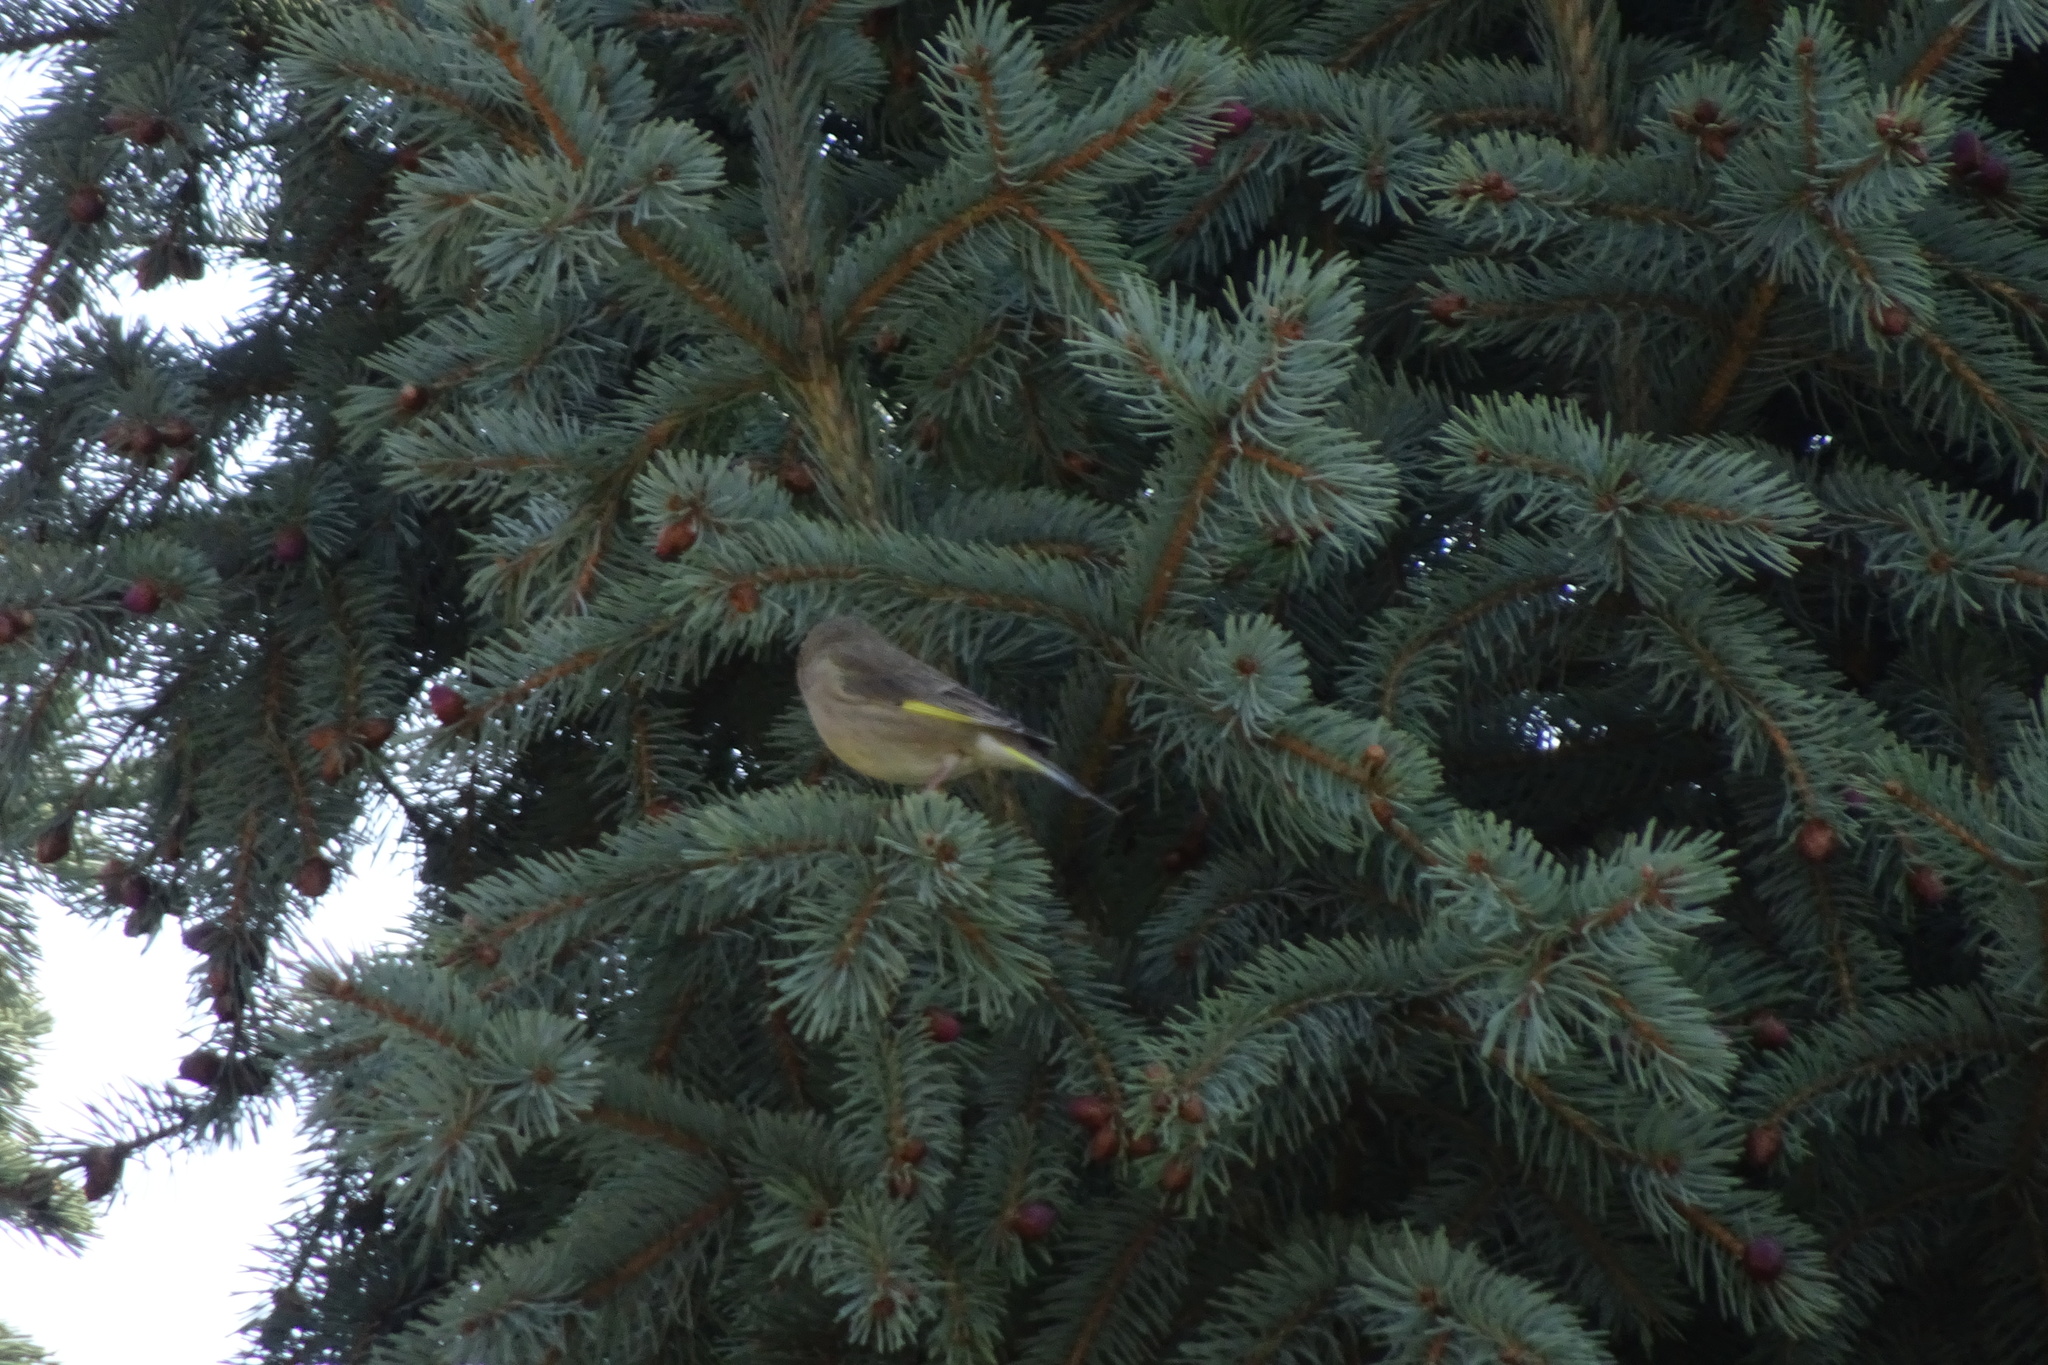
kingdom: Plantae
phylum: Tracheophyta
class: Liliopsida
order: Poales
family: Poaceae
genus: Chloris
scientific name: Chloris chloris
